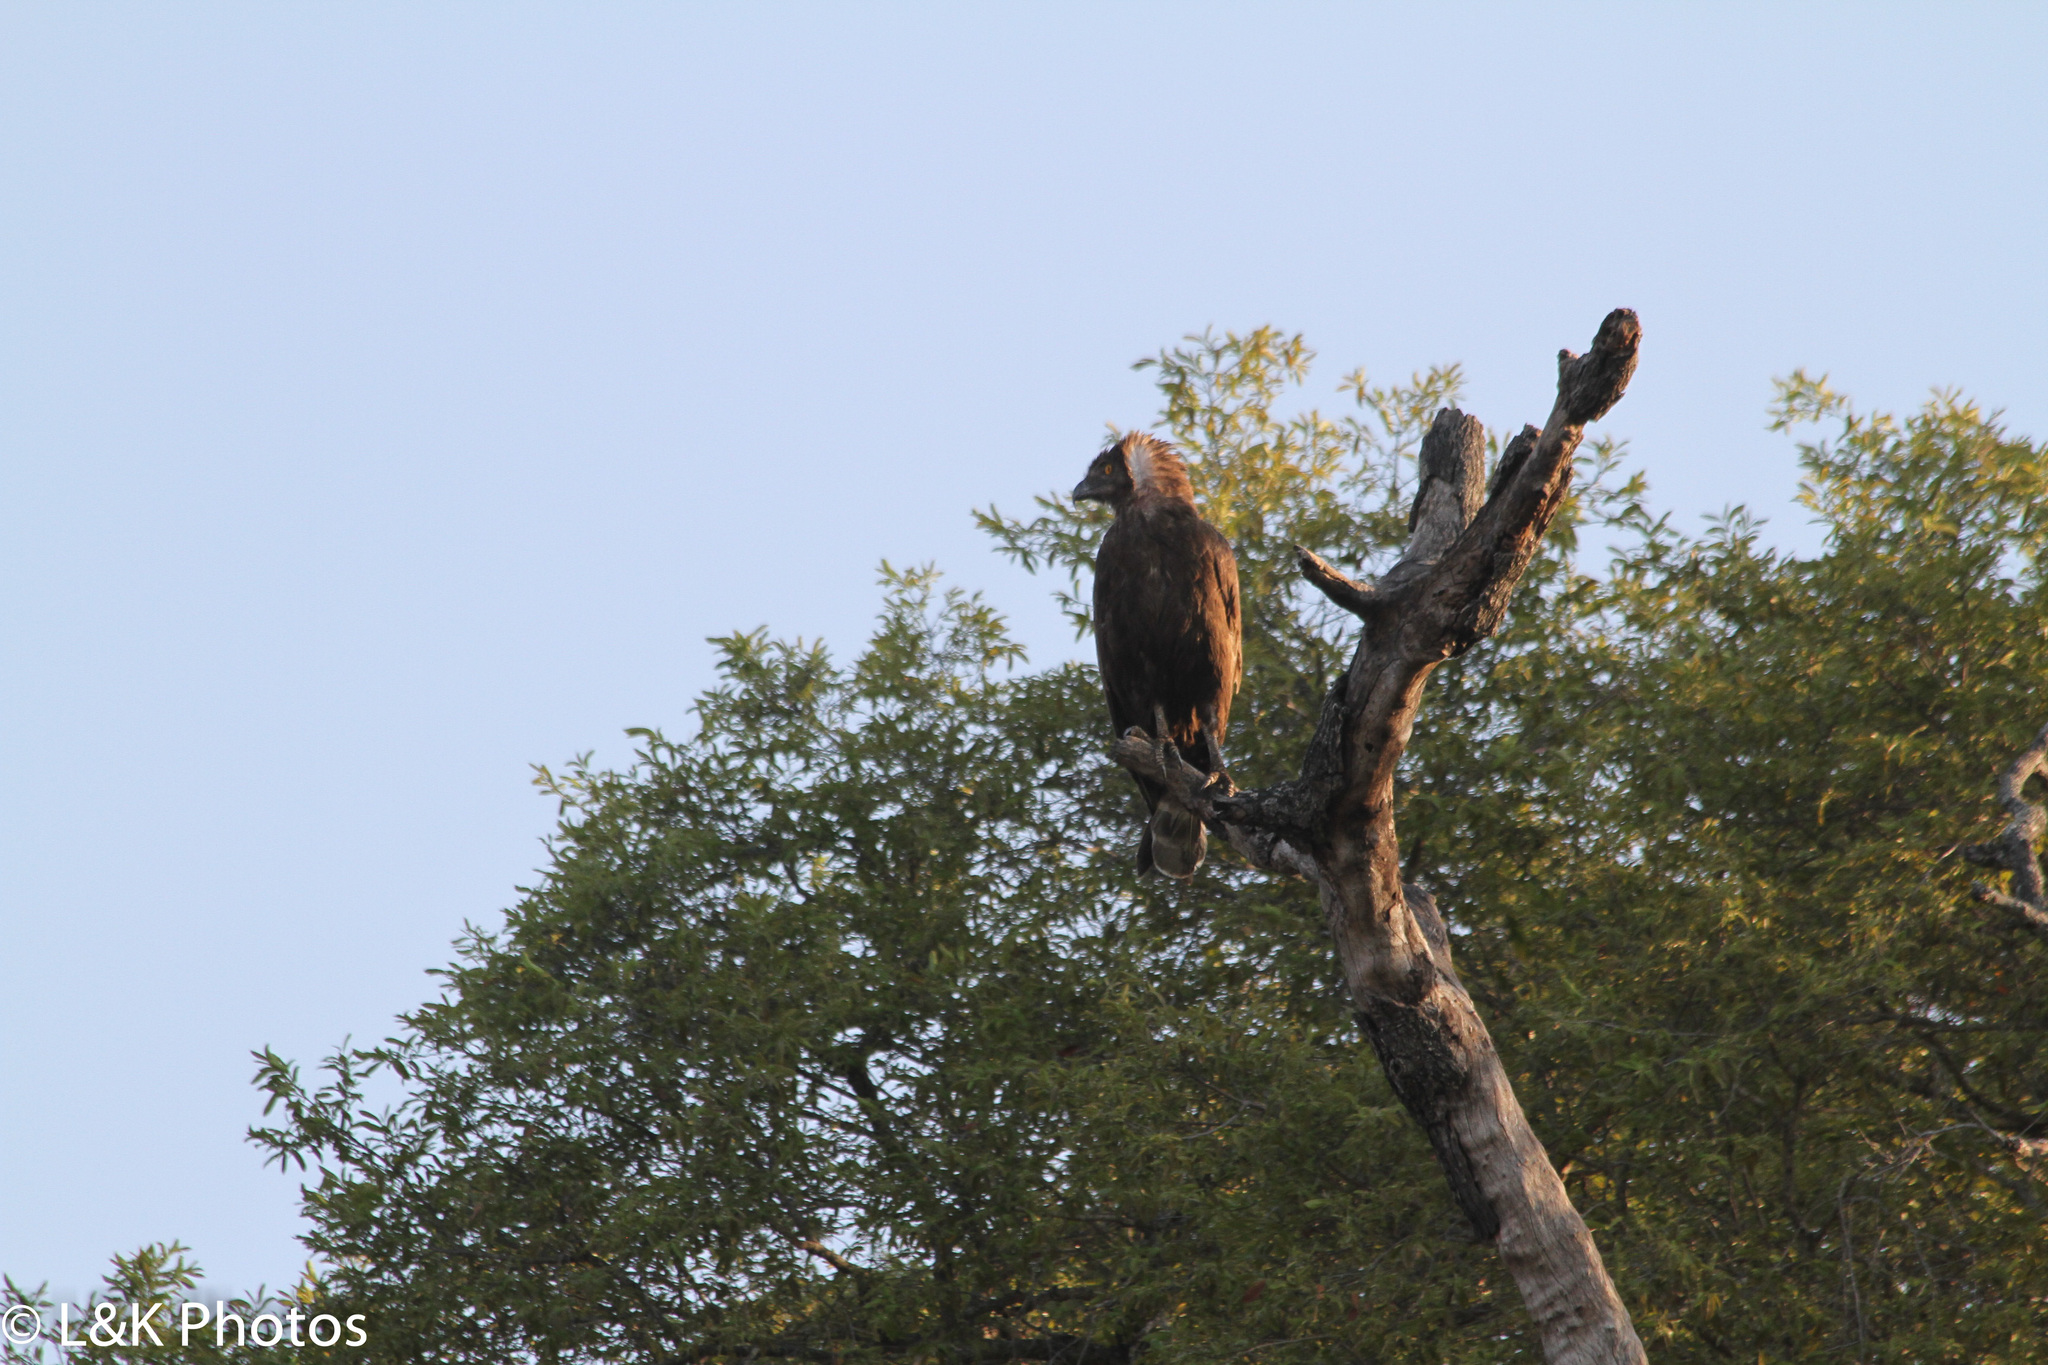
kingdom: Animalia
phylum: Chordata
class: Aves
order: Accipitriformes
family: Accipitridae
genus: Circaetus
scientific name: Circaetus cinereus
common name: Brown snake eagle
